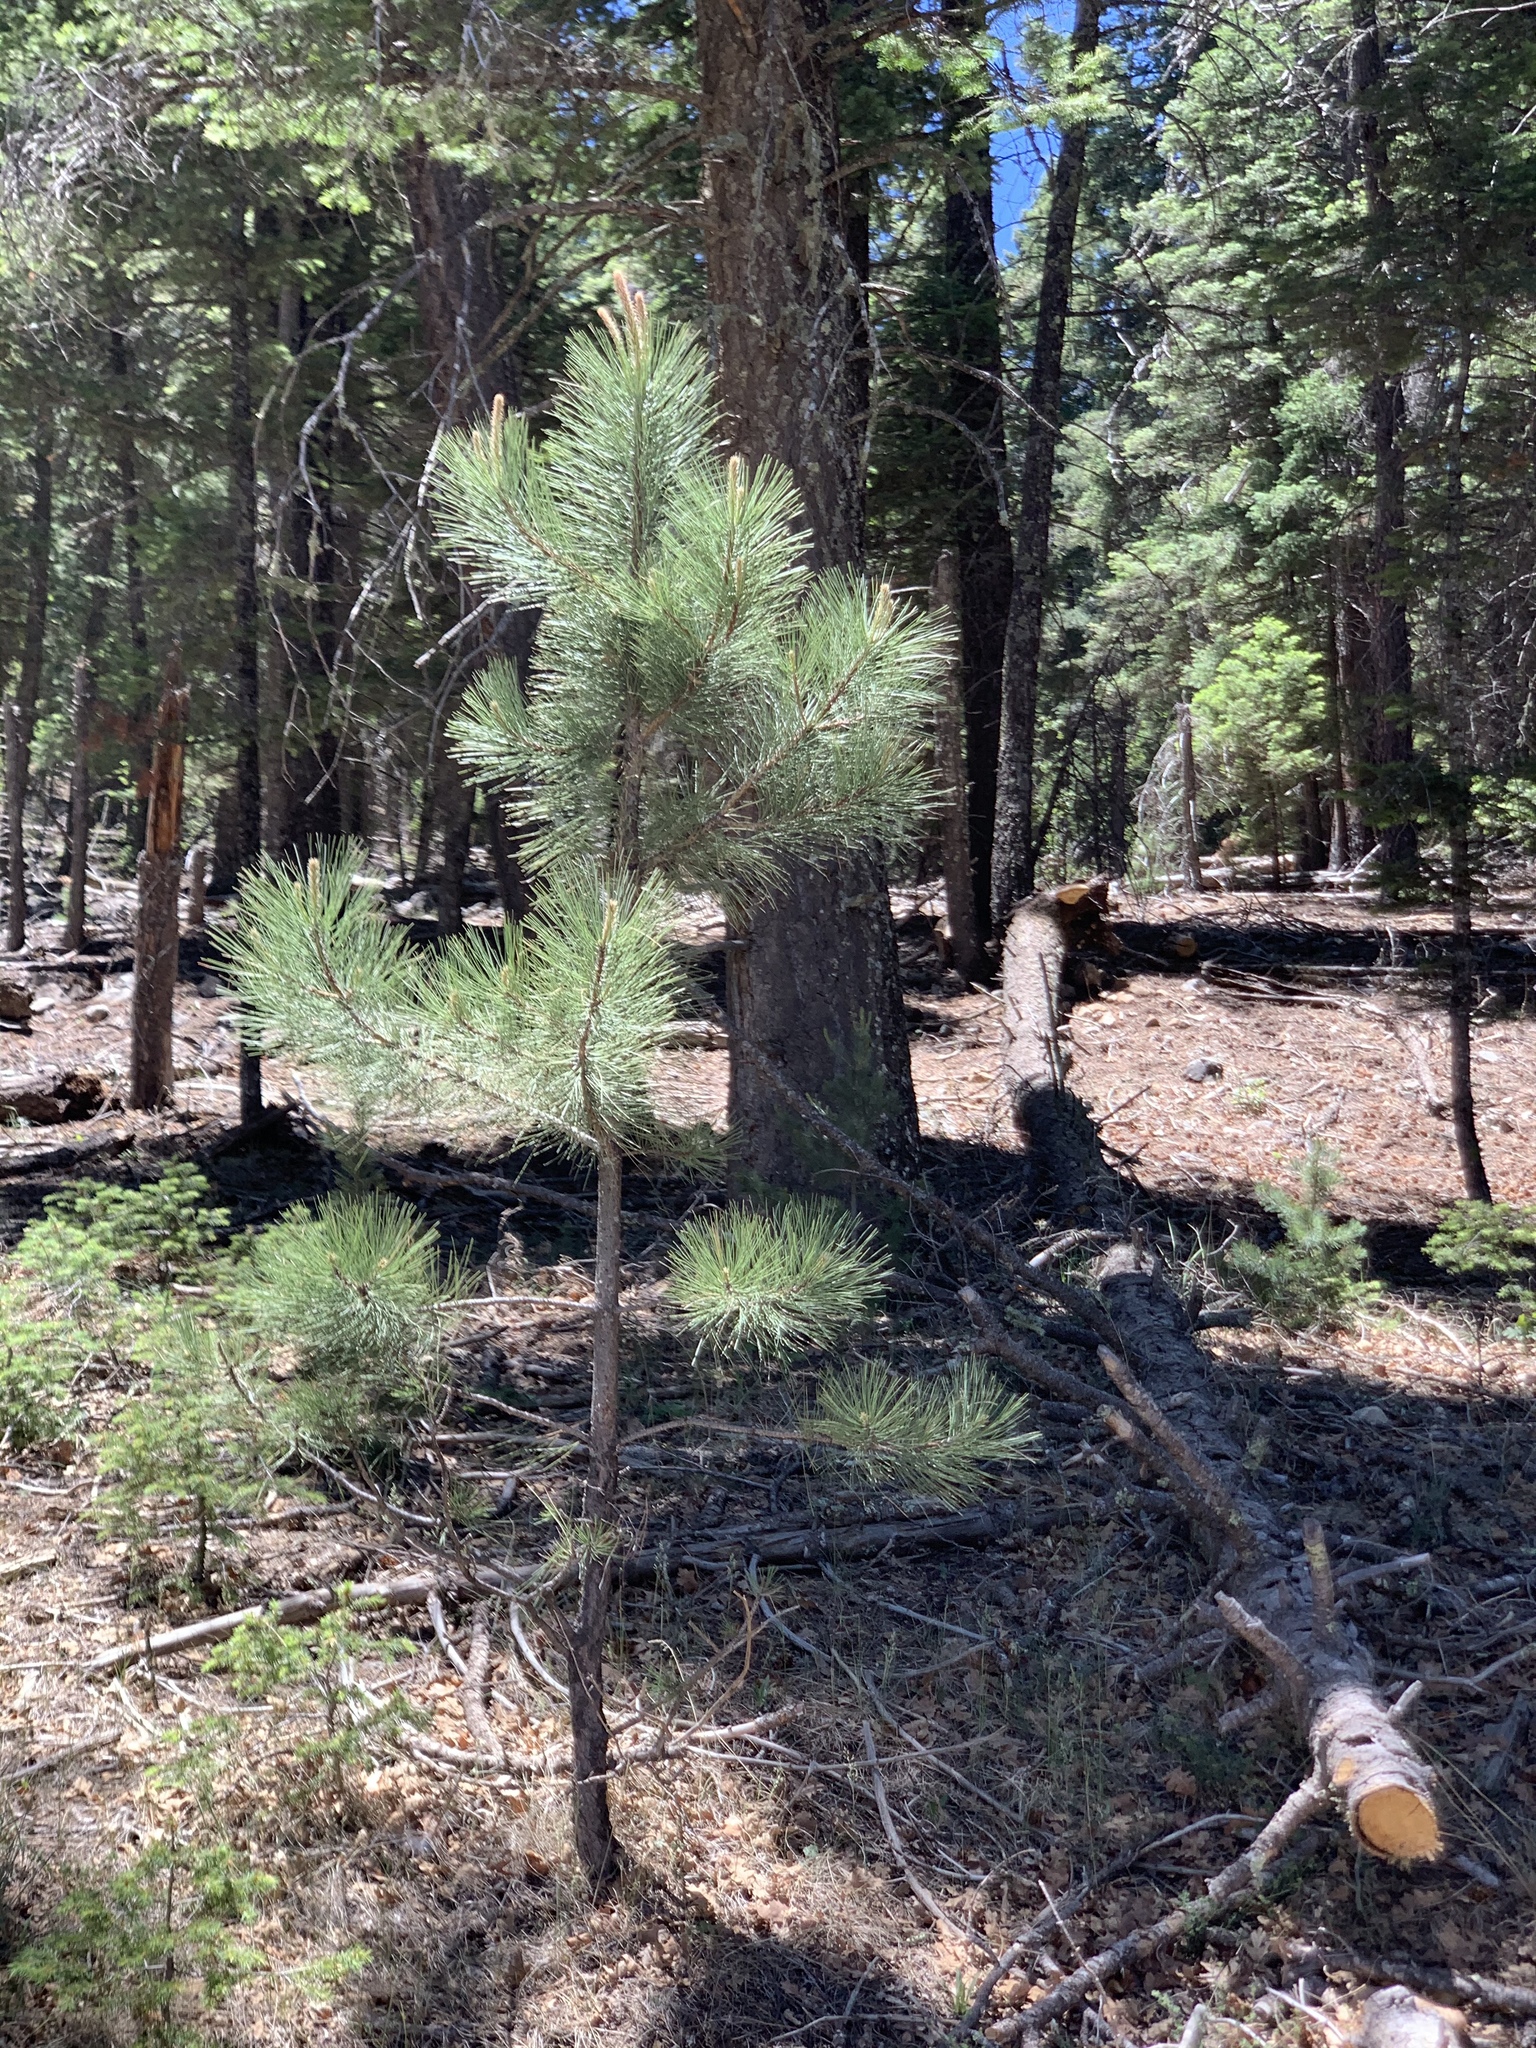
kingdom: Plantae
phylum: Tracheophyta
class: Pinopsida
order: Pinales
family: Pinaceae
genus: Pinus
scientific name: Pinus ponderosa
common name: Western yellow-pine
